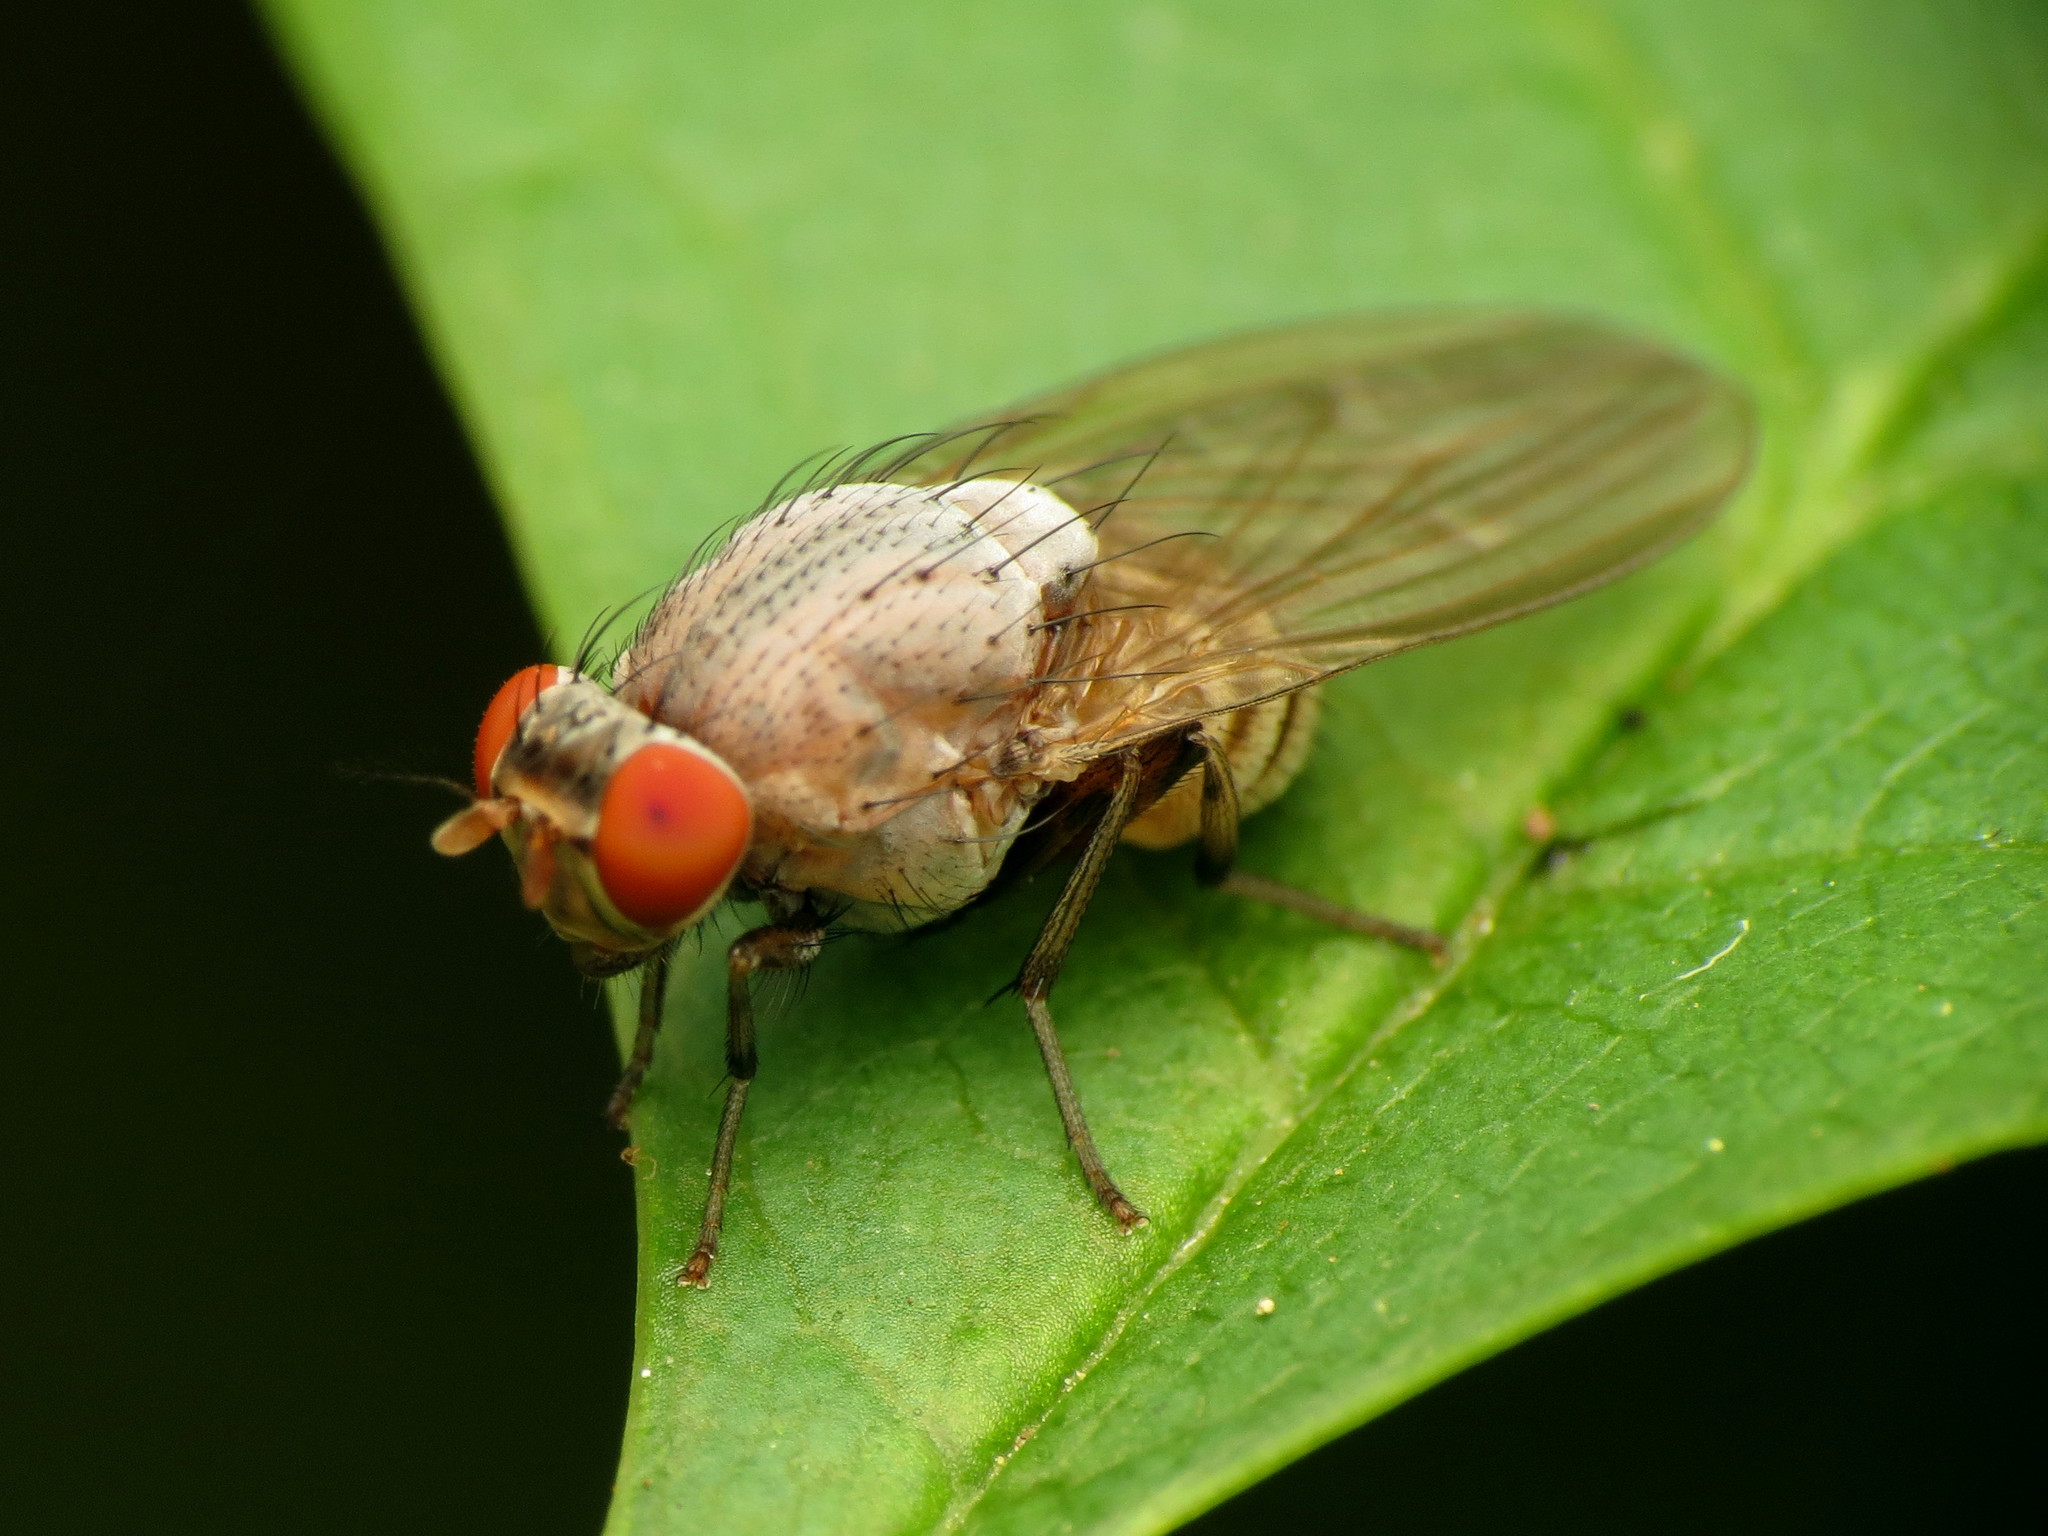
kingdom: Animalia
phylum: Arthropoda
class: Insecta
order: Diptera
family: Lauxaniidae
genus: Minettia
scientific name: Minettia magna
